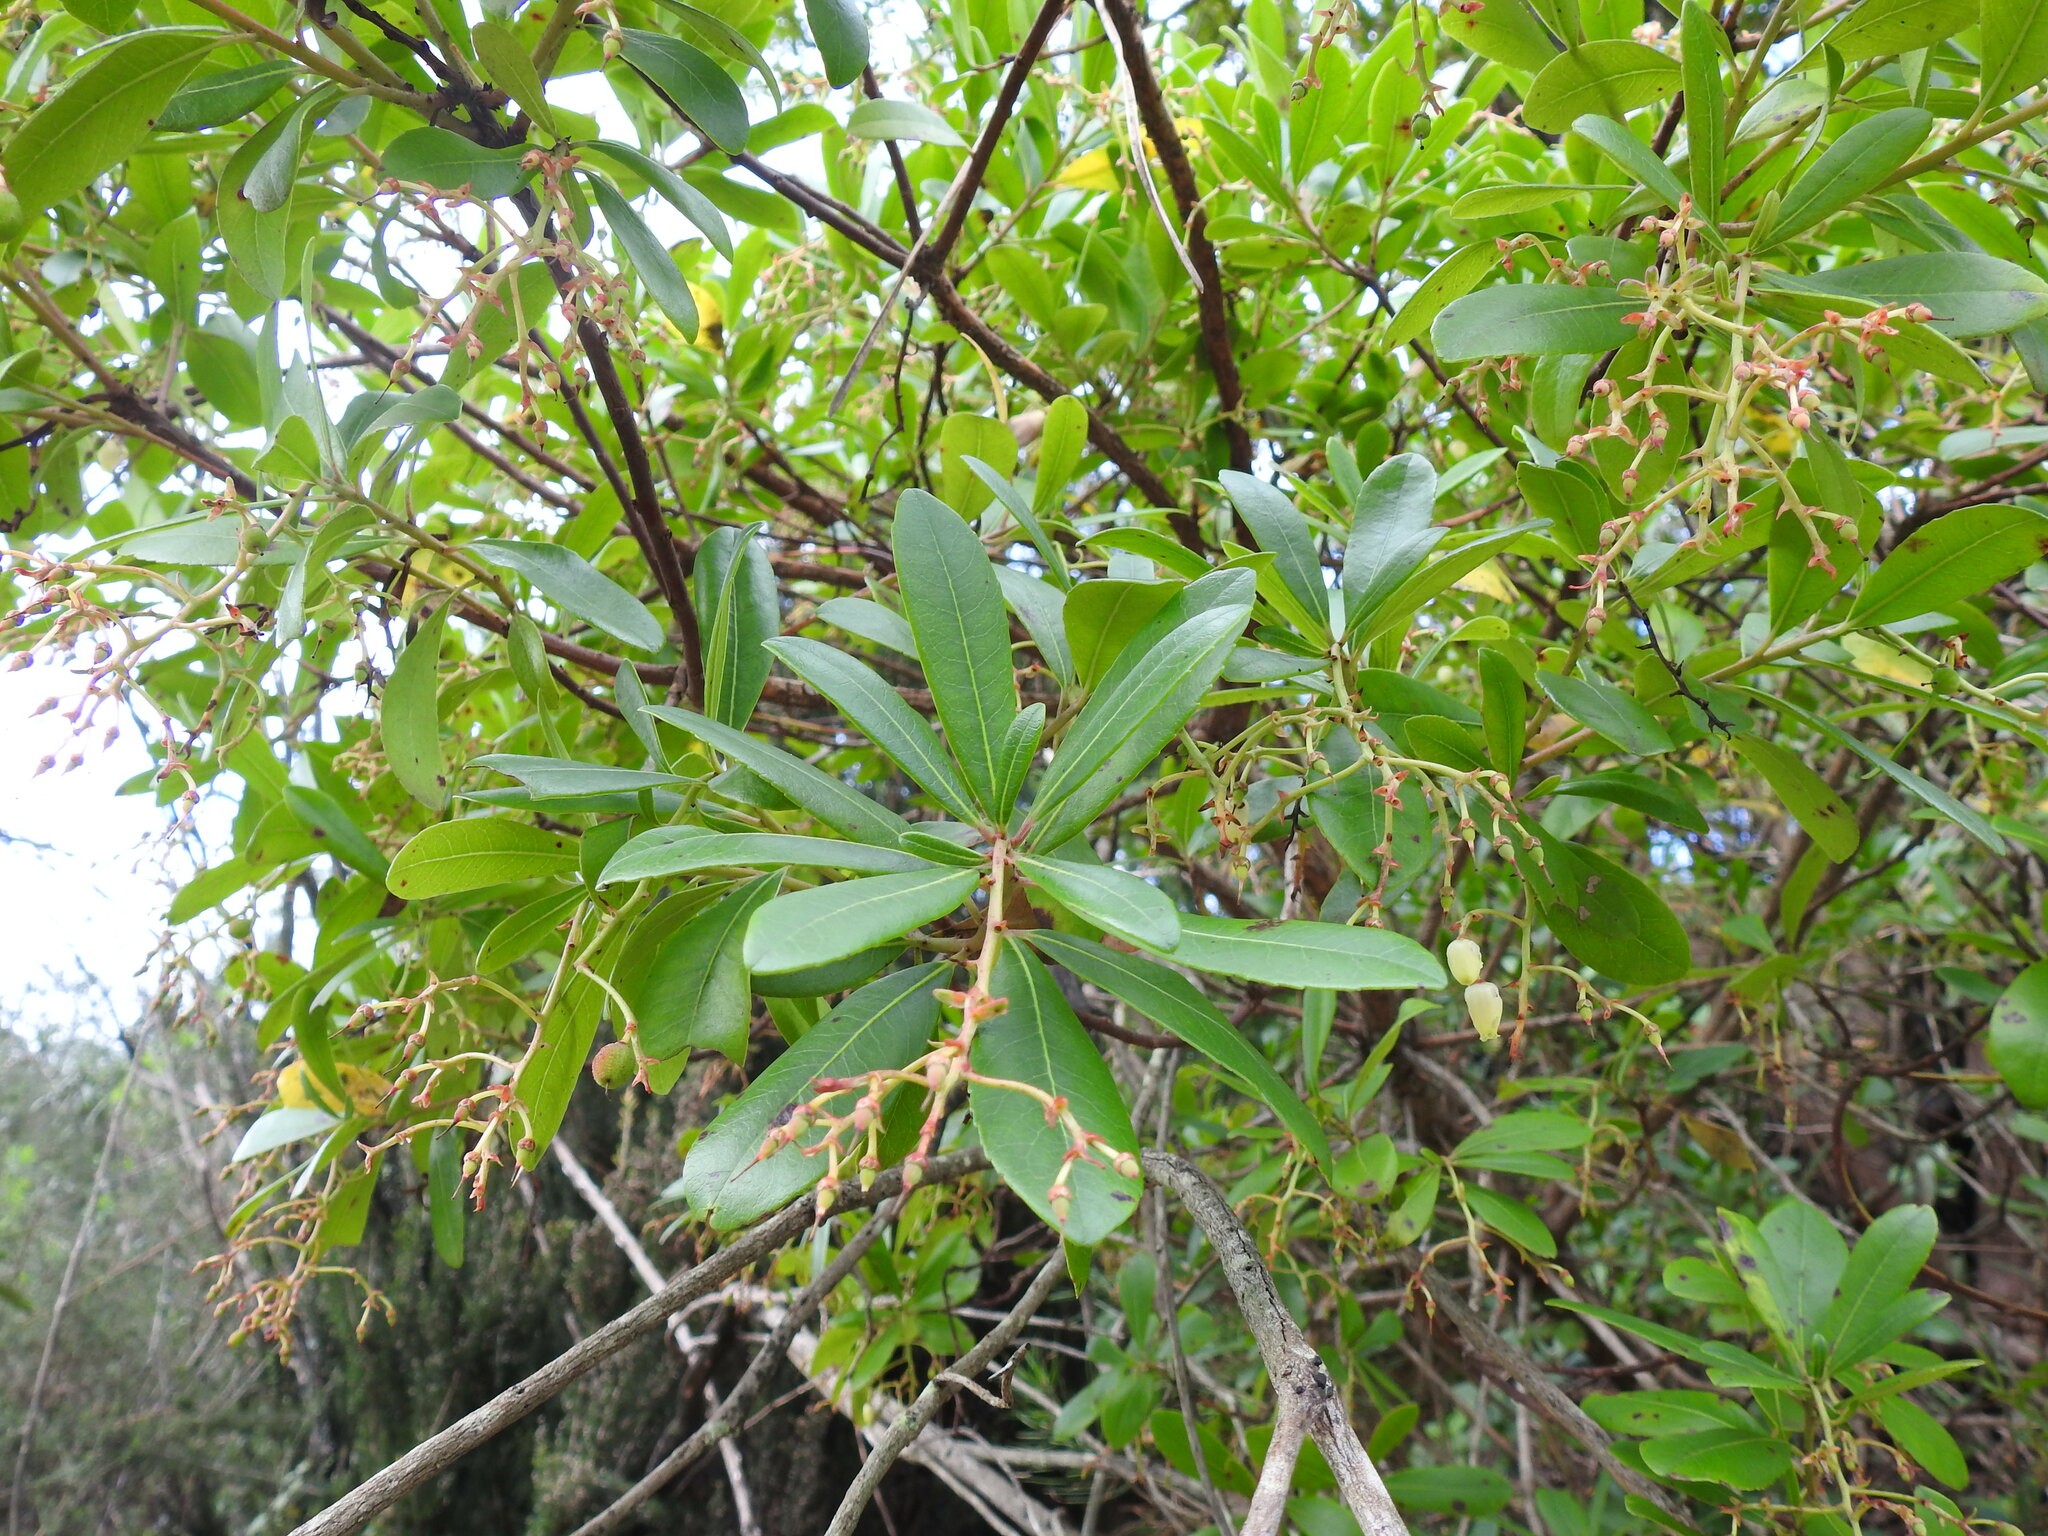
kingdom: Plantae
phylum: Tracheophyta
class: Magnoliopsida
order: Ericales
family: Ericaceae
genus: Arbutus
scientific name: Arbutus unedo
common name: Strawberry-tree
